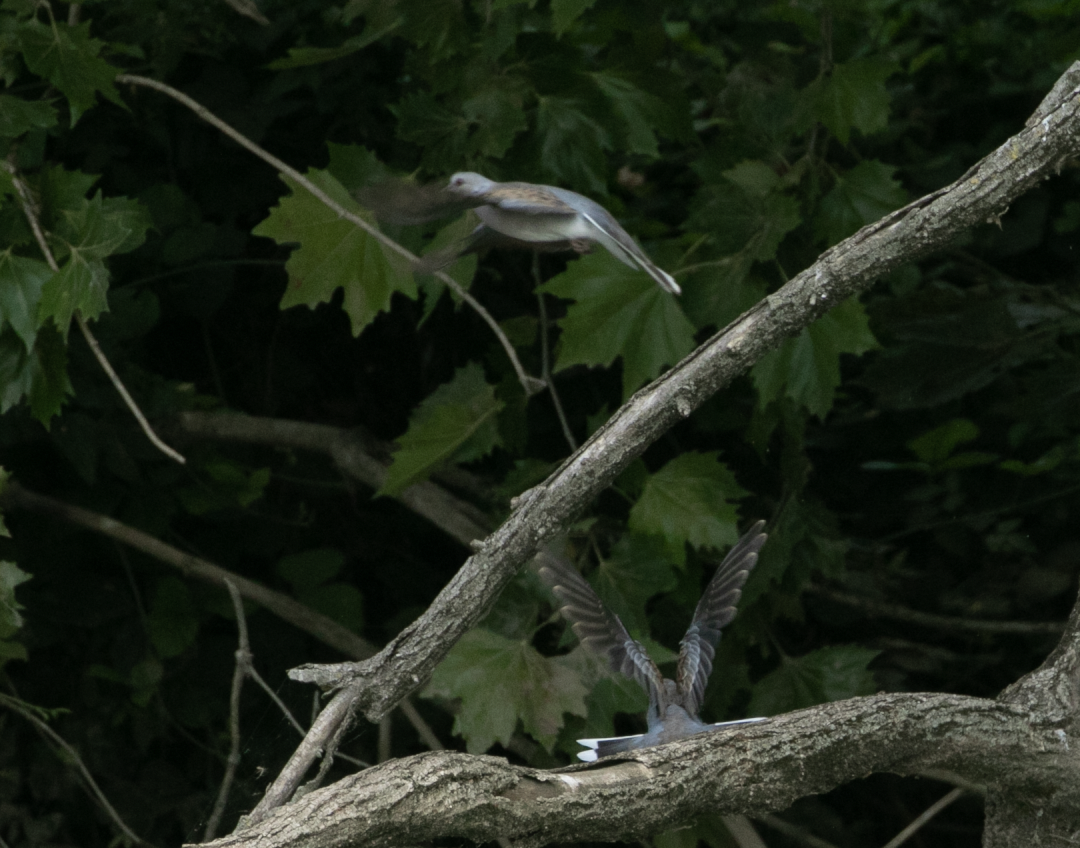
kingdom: Animalia
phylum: Chordata
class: Aves
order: Columbiformes
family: Columbidae
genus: Streptopelia
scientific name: Streptopelia turtur
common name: European turtle dove
